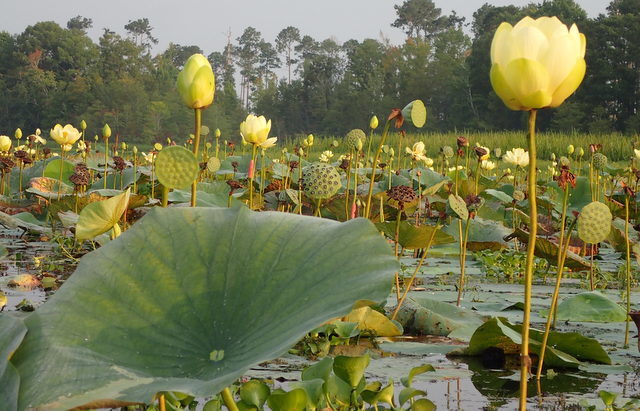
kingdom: Plantae
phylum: Tracheophyta
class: Magnoliopsida
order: Proteales
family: Nelumbonaceae
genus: Nelumbo
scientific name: Nelumbo lutea
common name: American lotus
